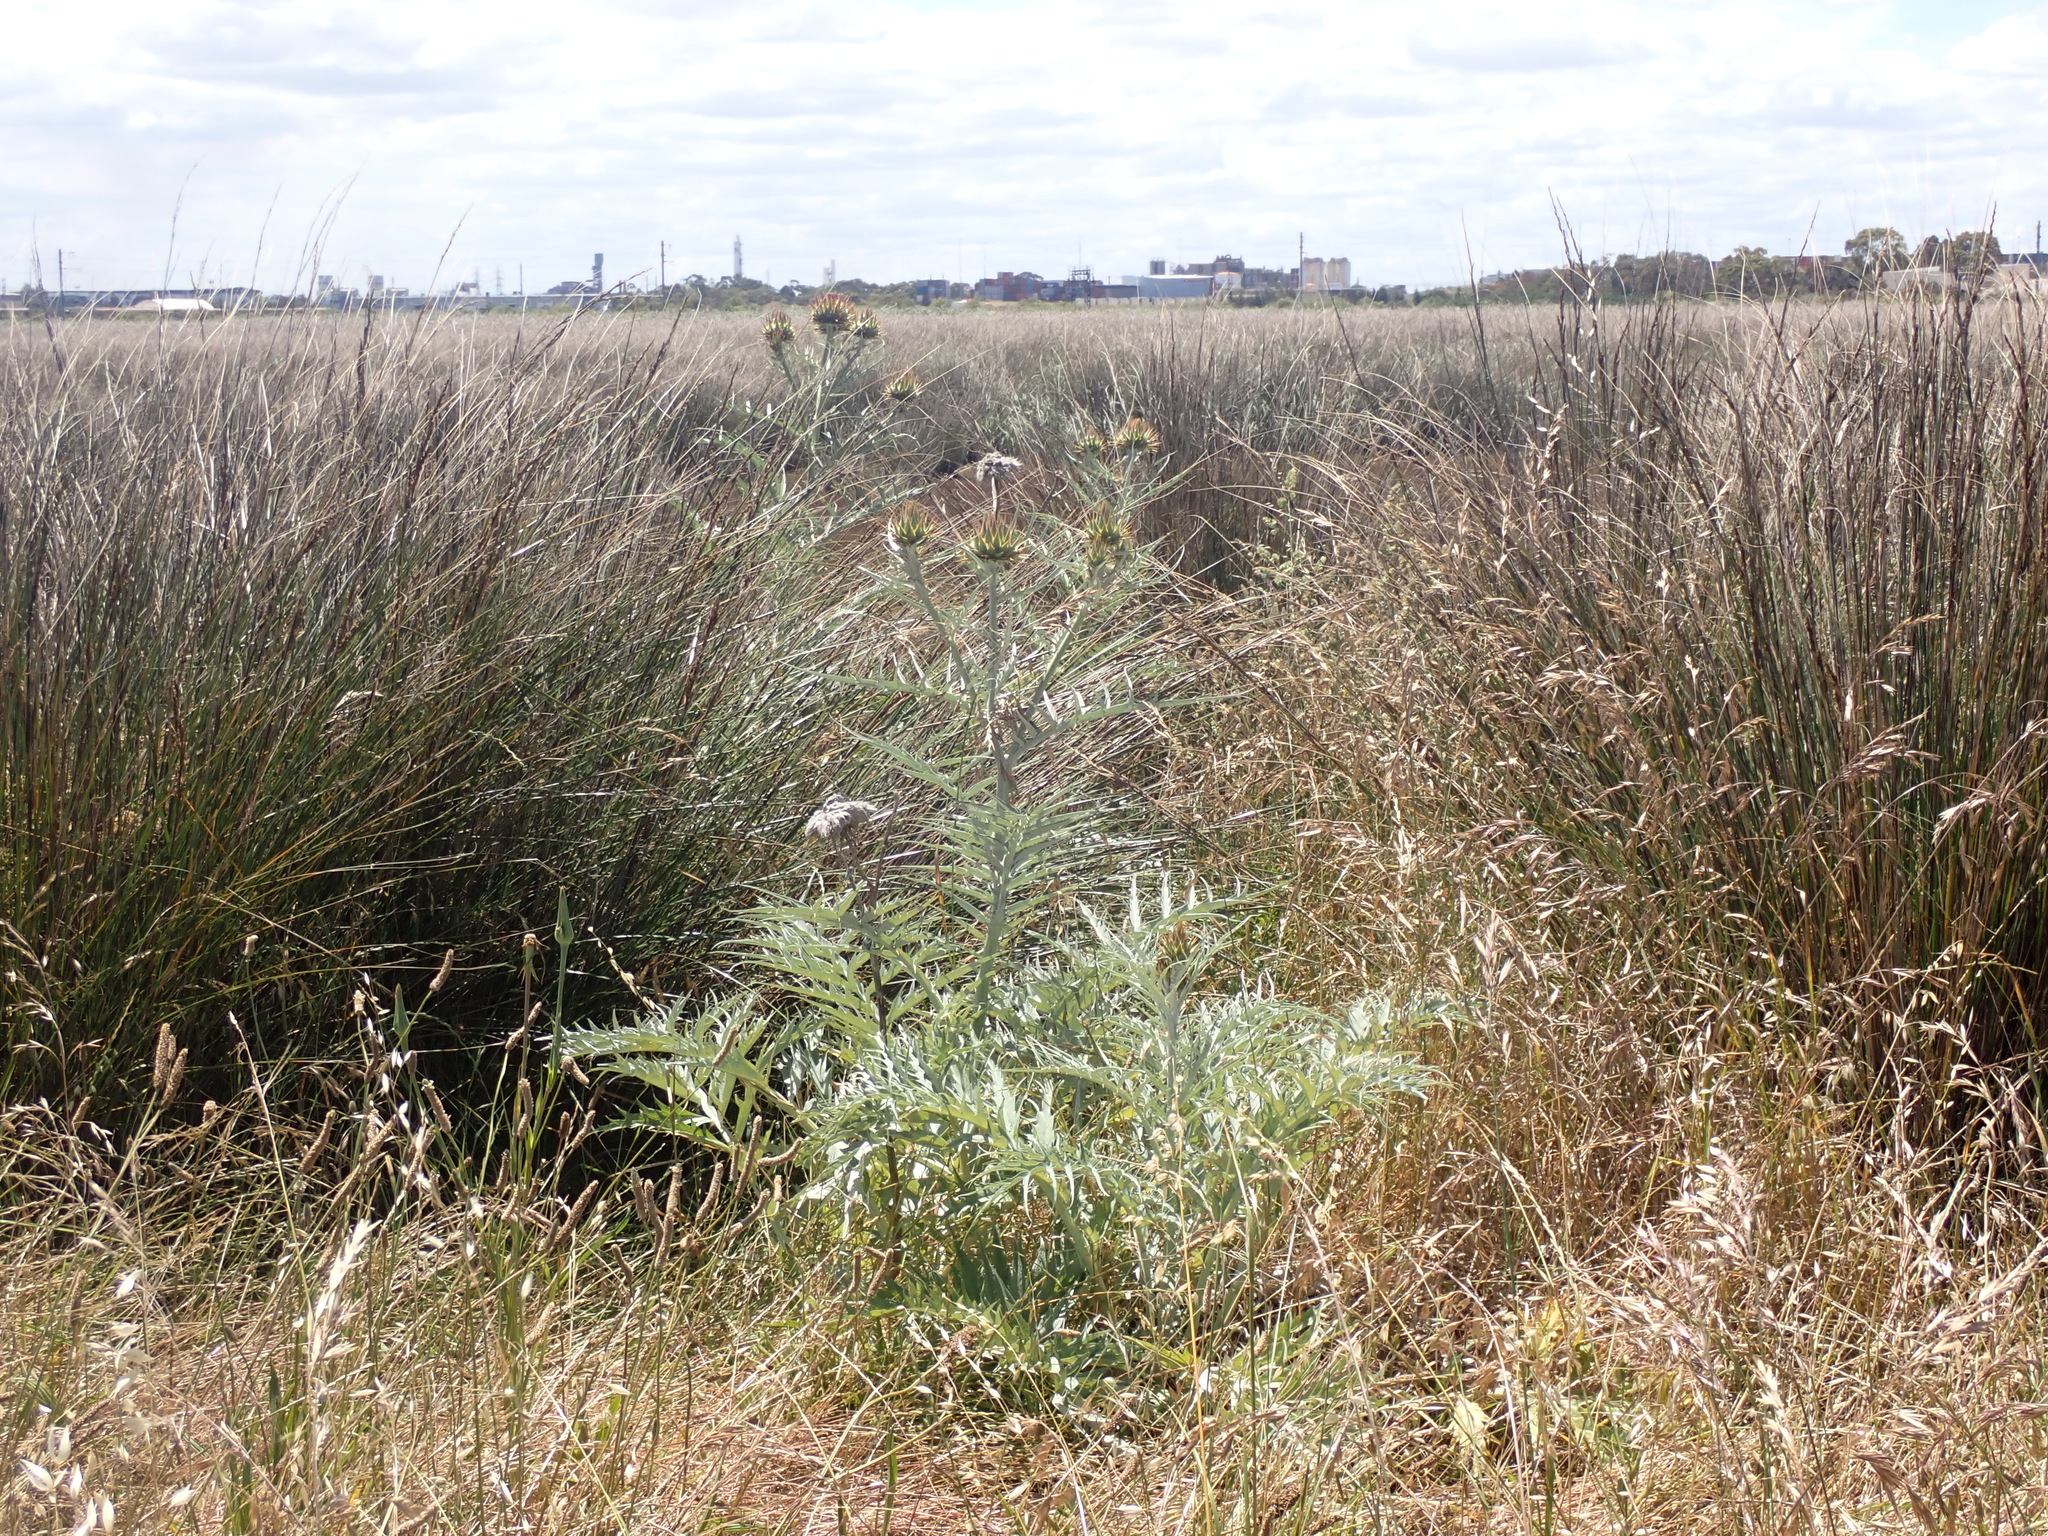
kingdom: Plantae
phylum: Tracheophyta
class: Magnoliopsida
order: Asterales
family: Asteraceae
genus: Cynara
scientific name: Cynara cardunculus
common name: Globe artichoke
